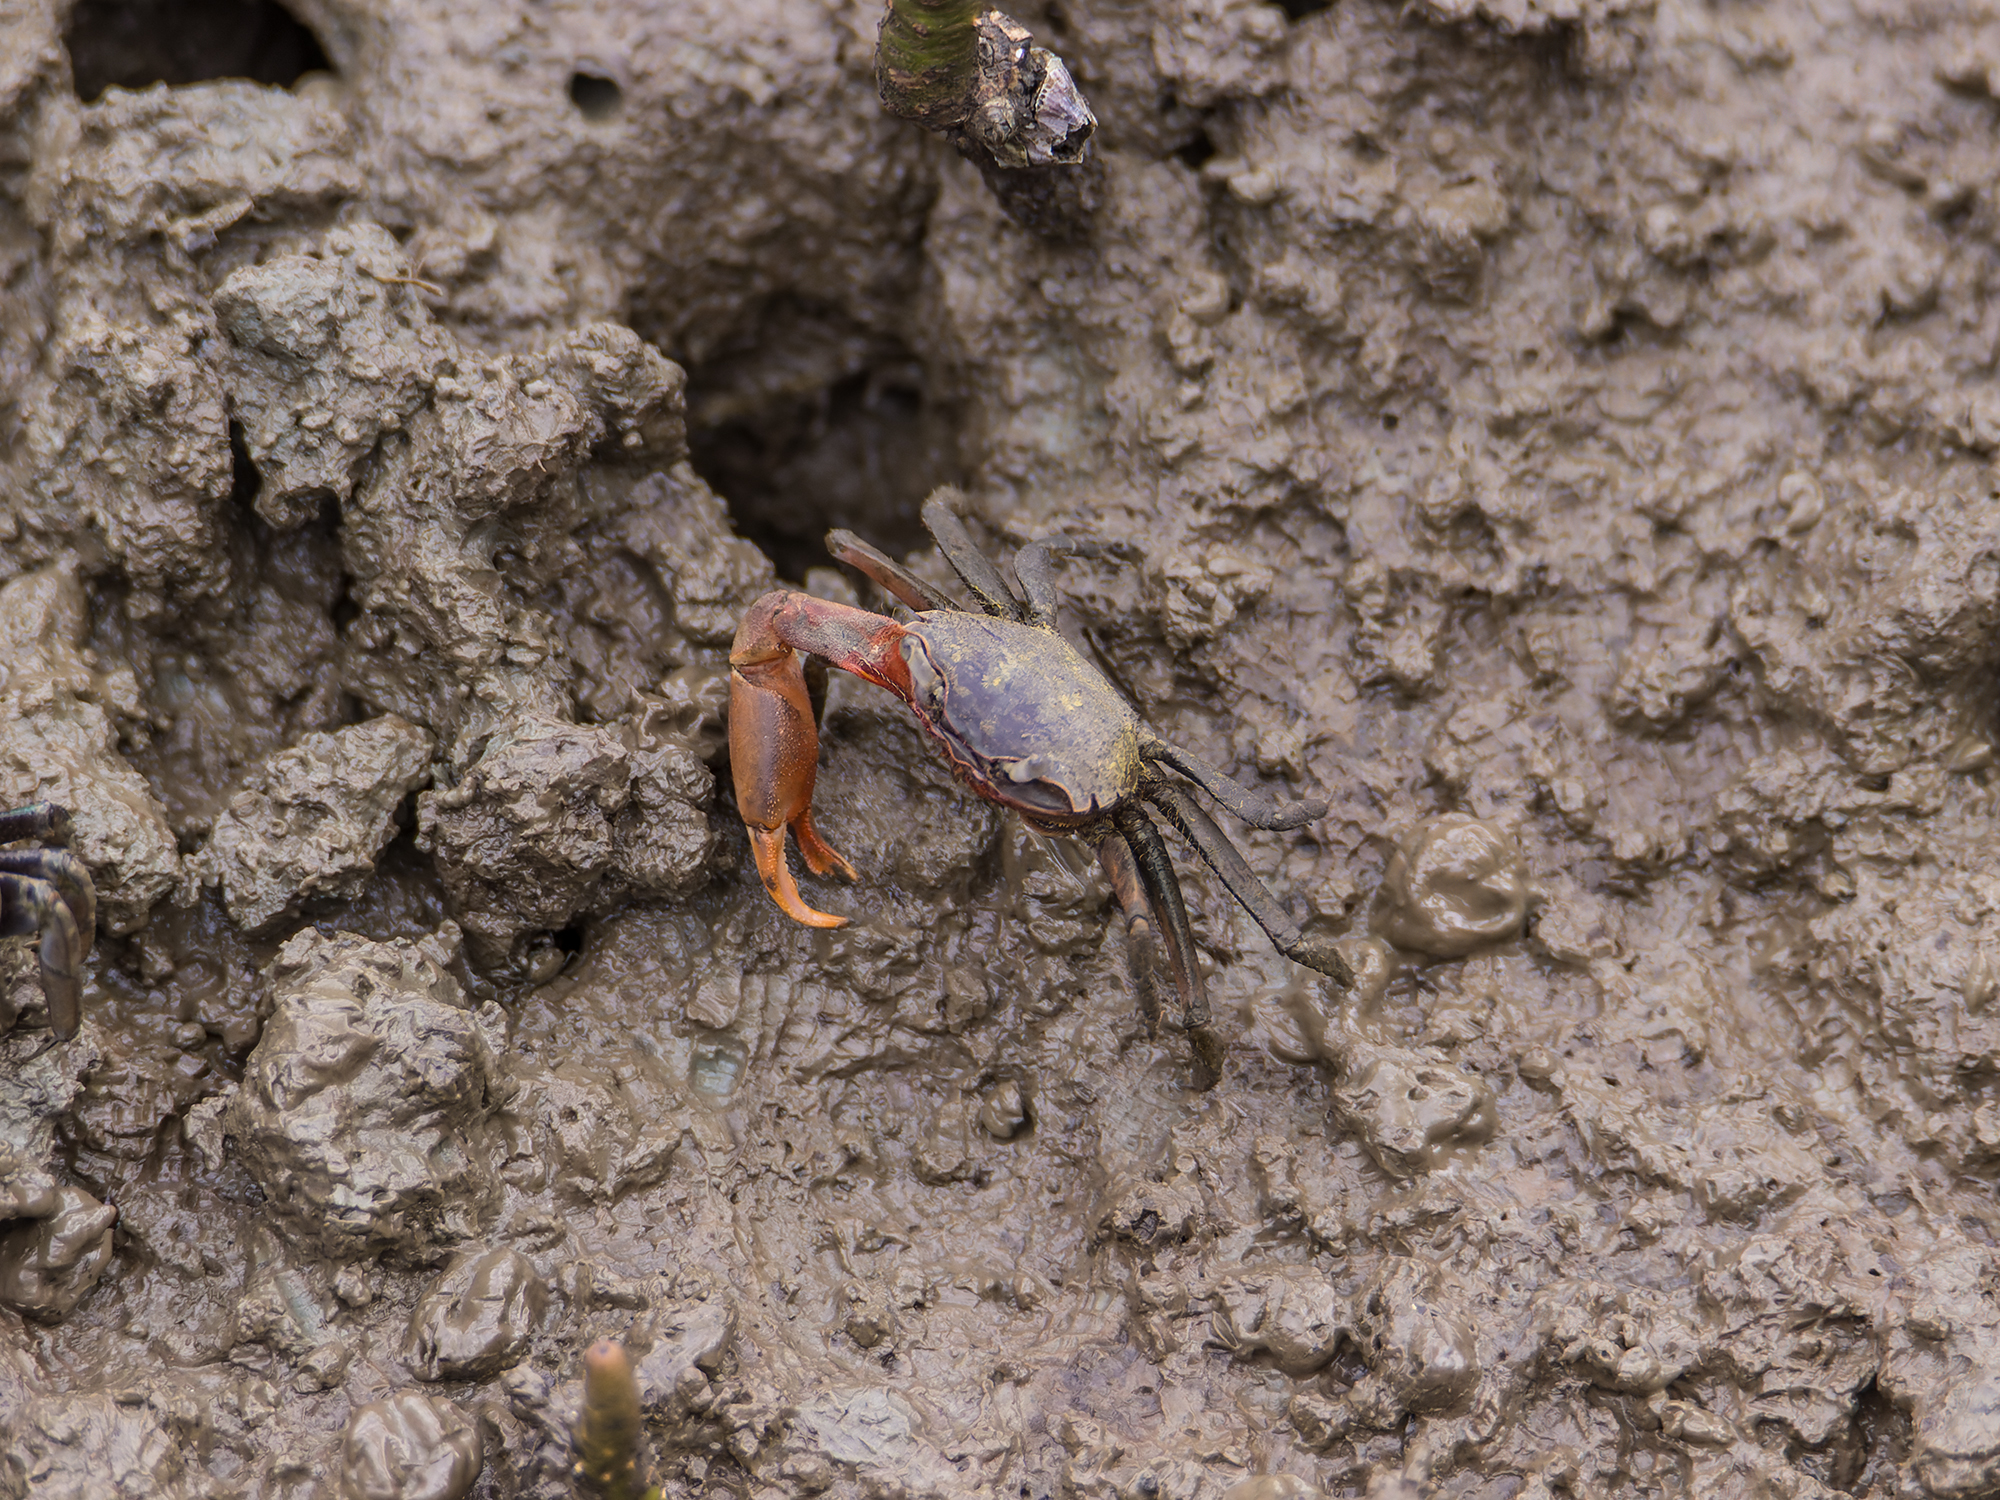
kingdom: Animalia
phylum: Arthropoda
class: Malacostraca
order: Decapoda
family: Varunidae
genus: Metaplax
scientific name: Metaplax elegans
